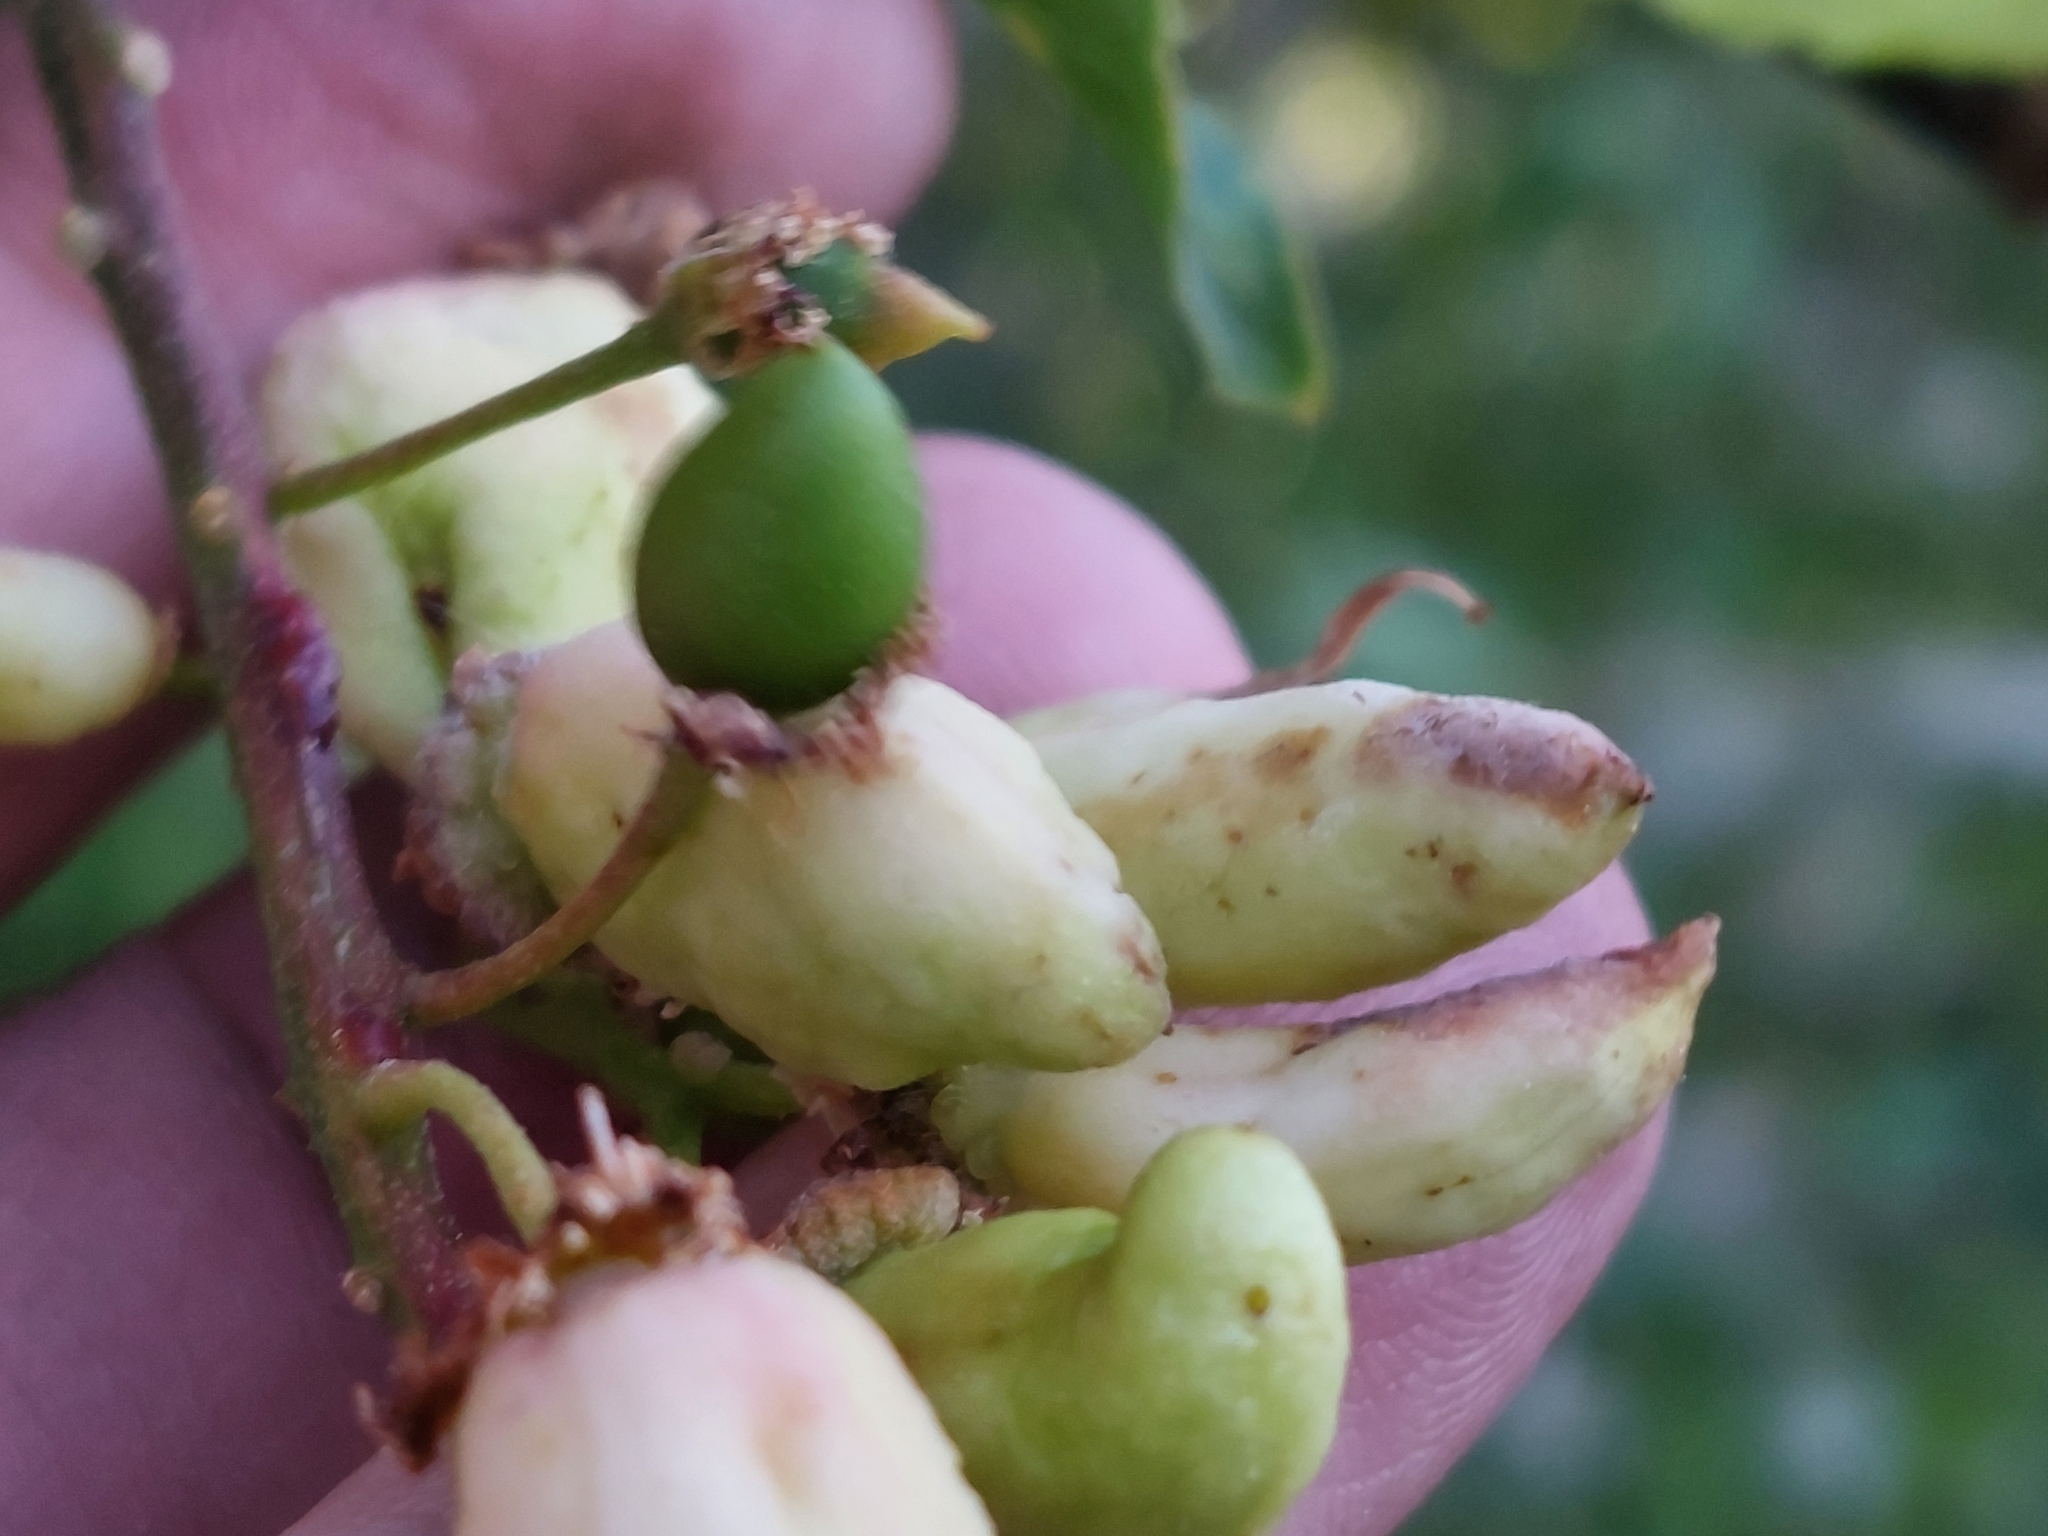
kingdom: Fungi
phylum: Ascomycota
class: Taphrinomycetes
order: Taphrinales
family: Taphrinaceae
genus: Taphrina
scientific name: Taphrina padi
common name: Bird cherry pocket
